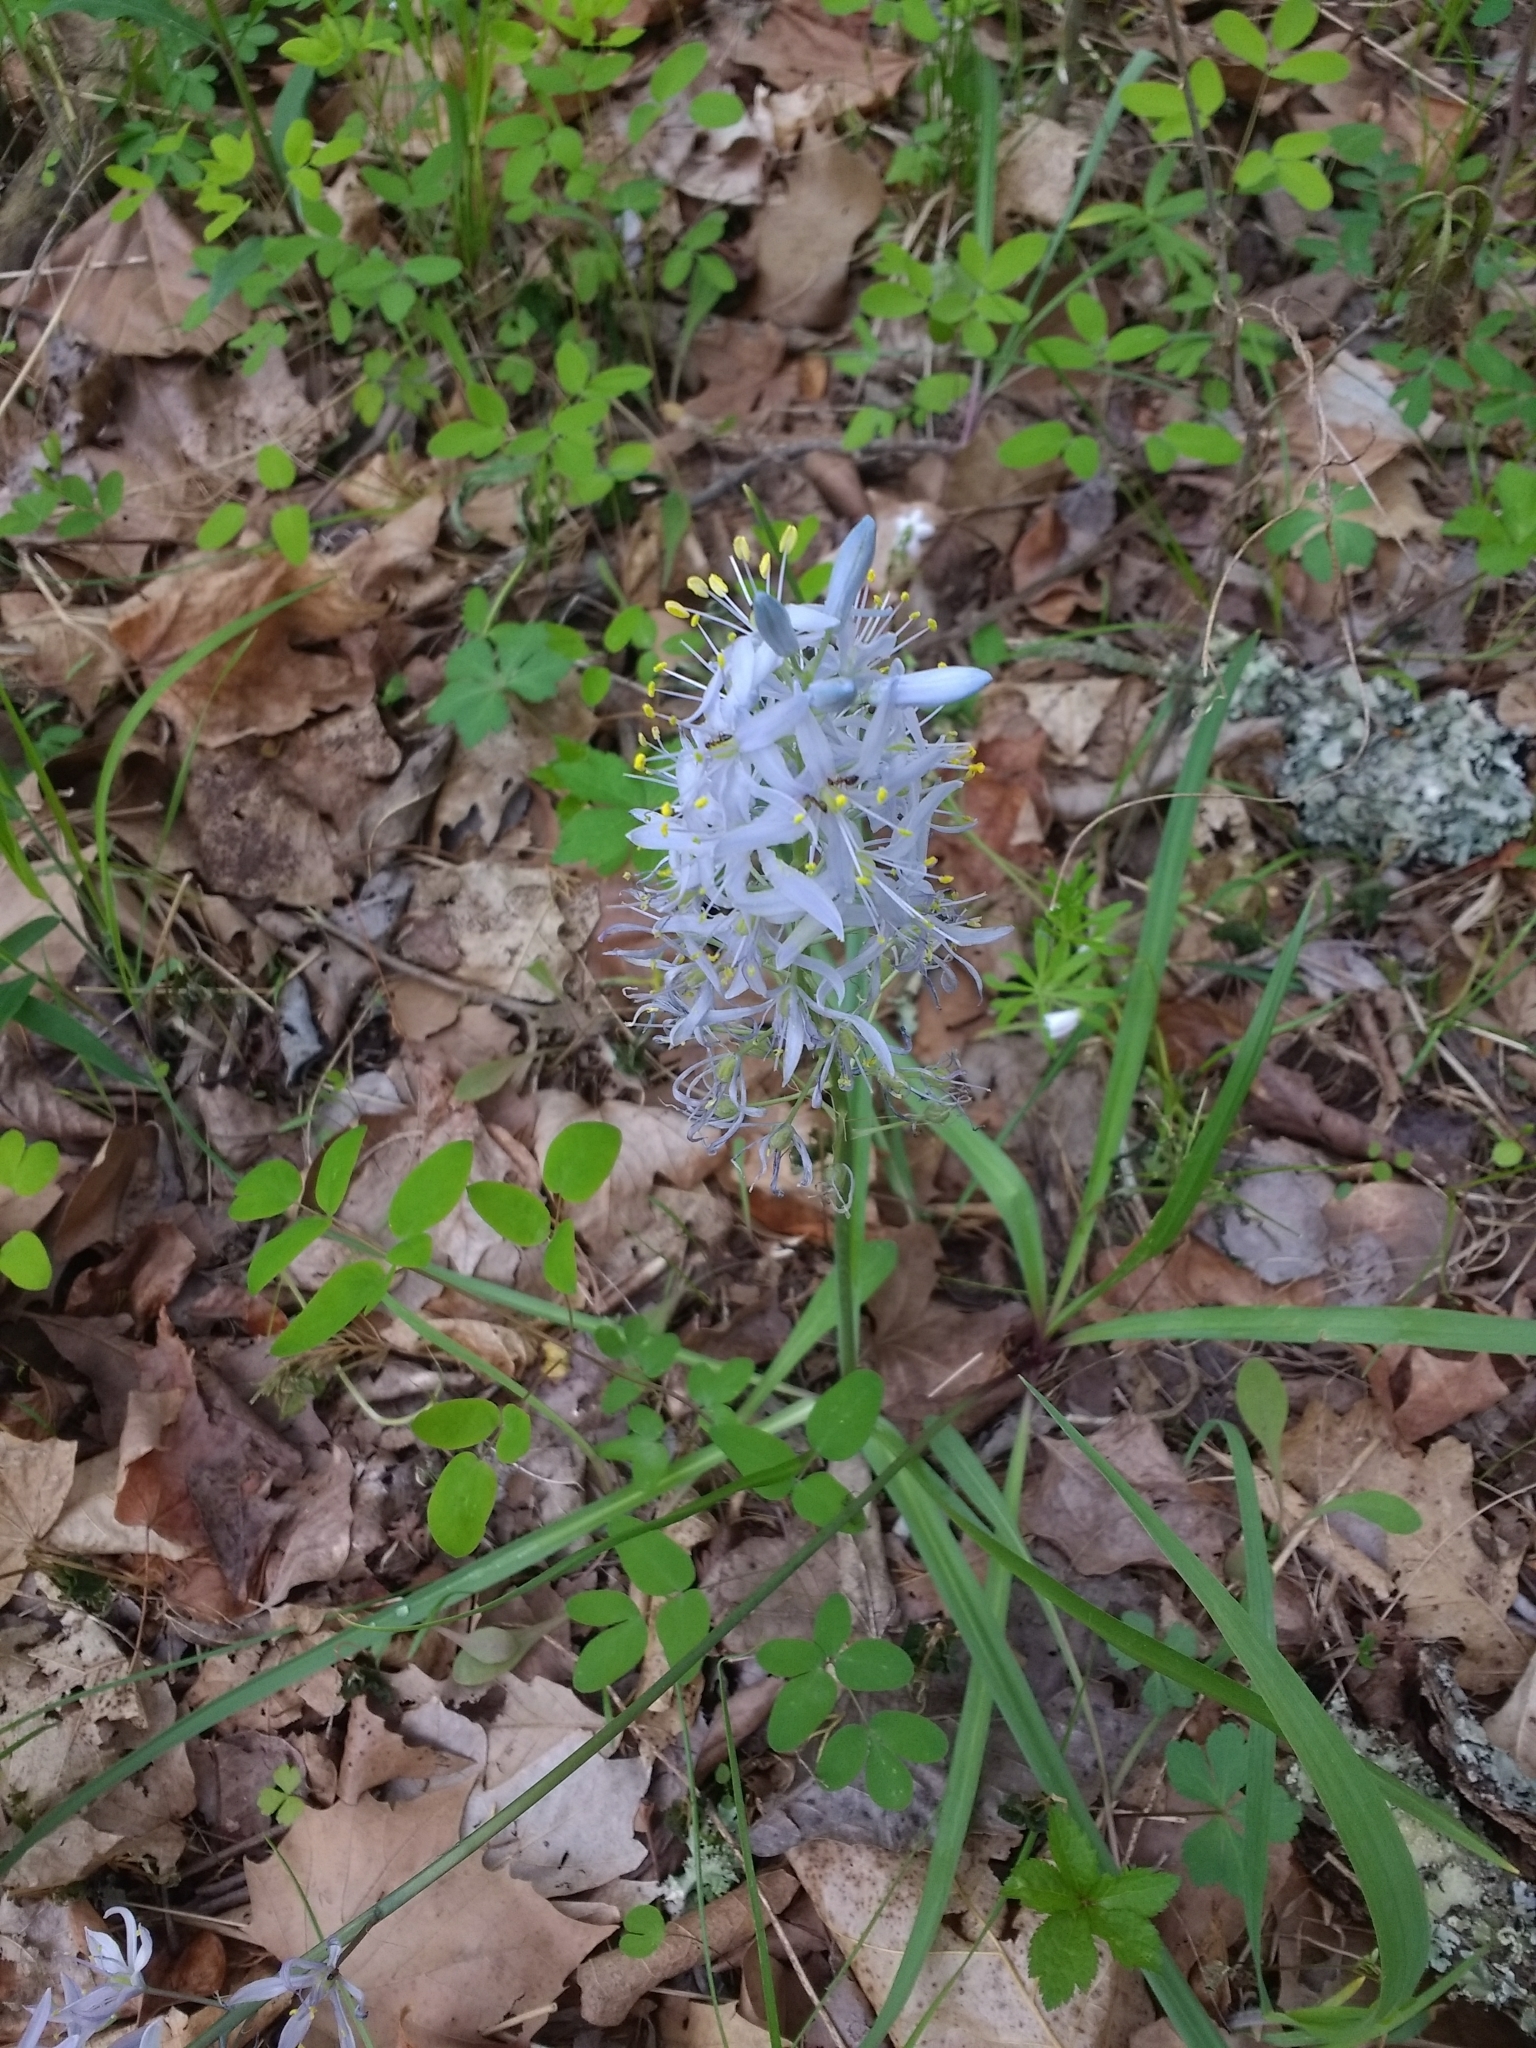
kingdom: Plantae
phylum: Tracheophyta
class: Liliopsida
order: Asparagales
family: Asparagaceae
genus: Camassia
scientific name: Camassia scilloides
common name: Wild hyacinth
